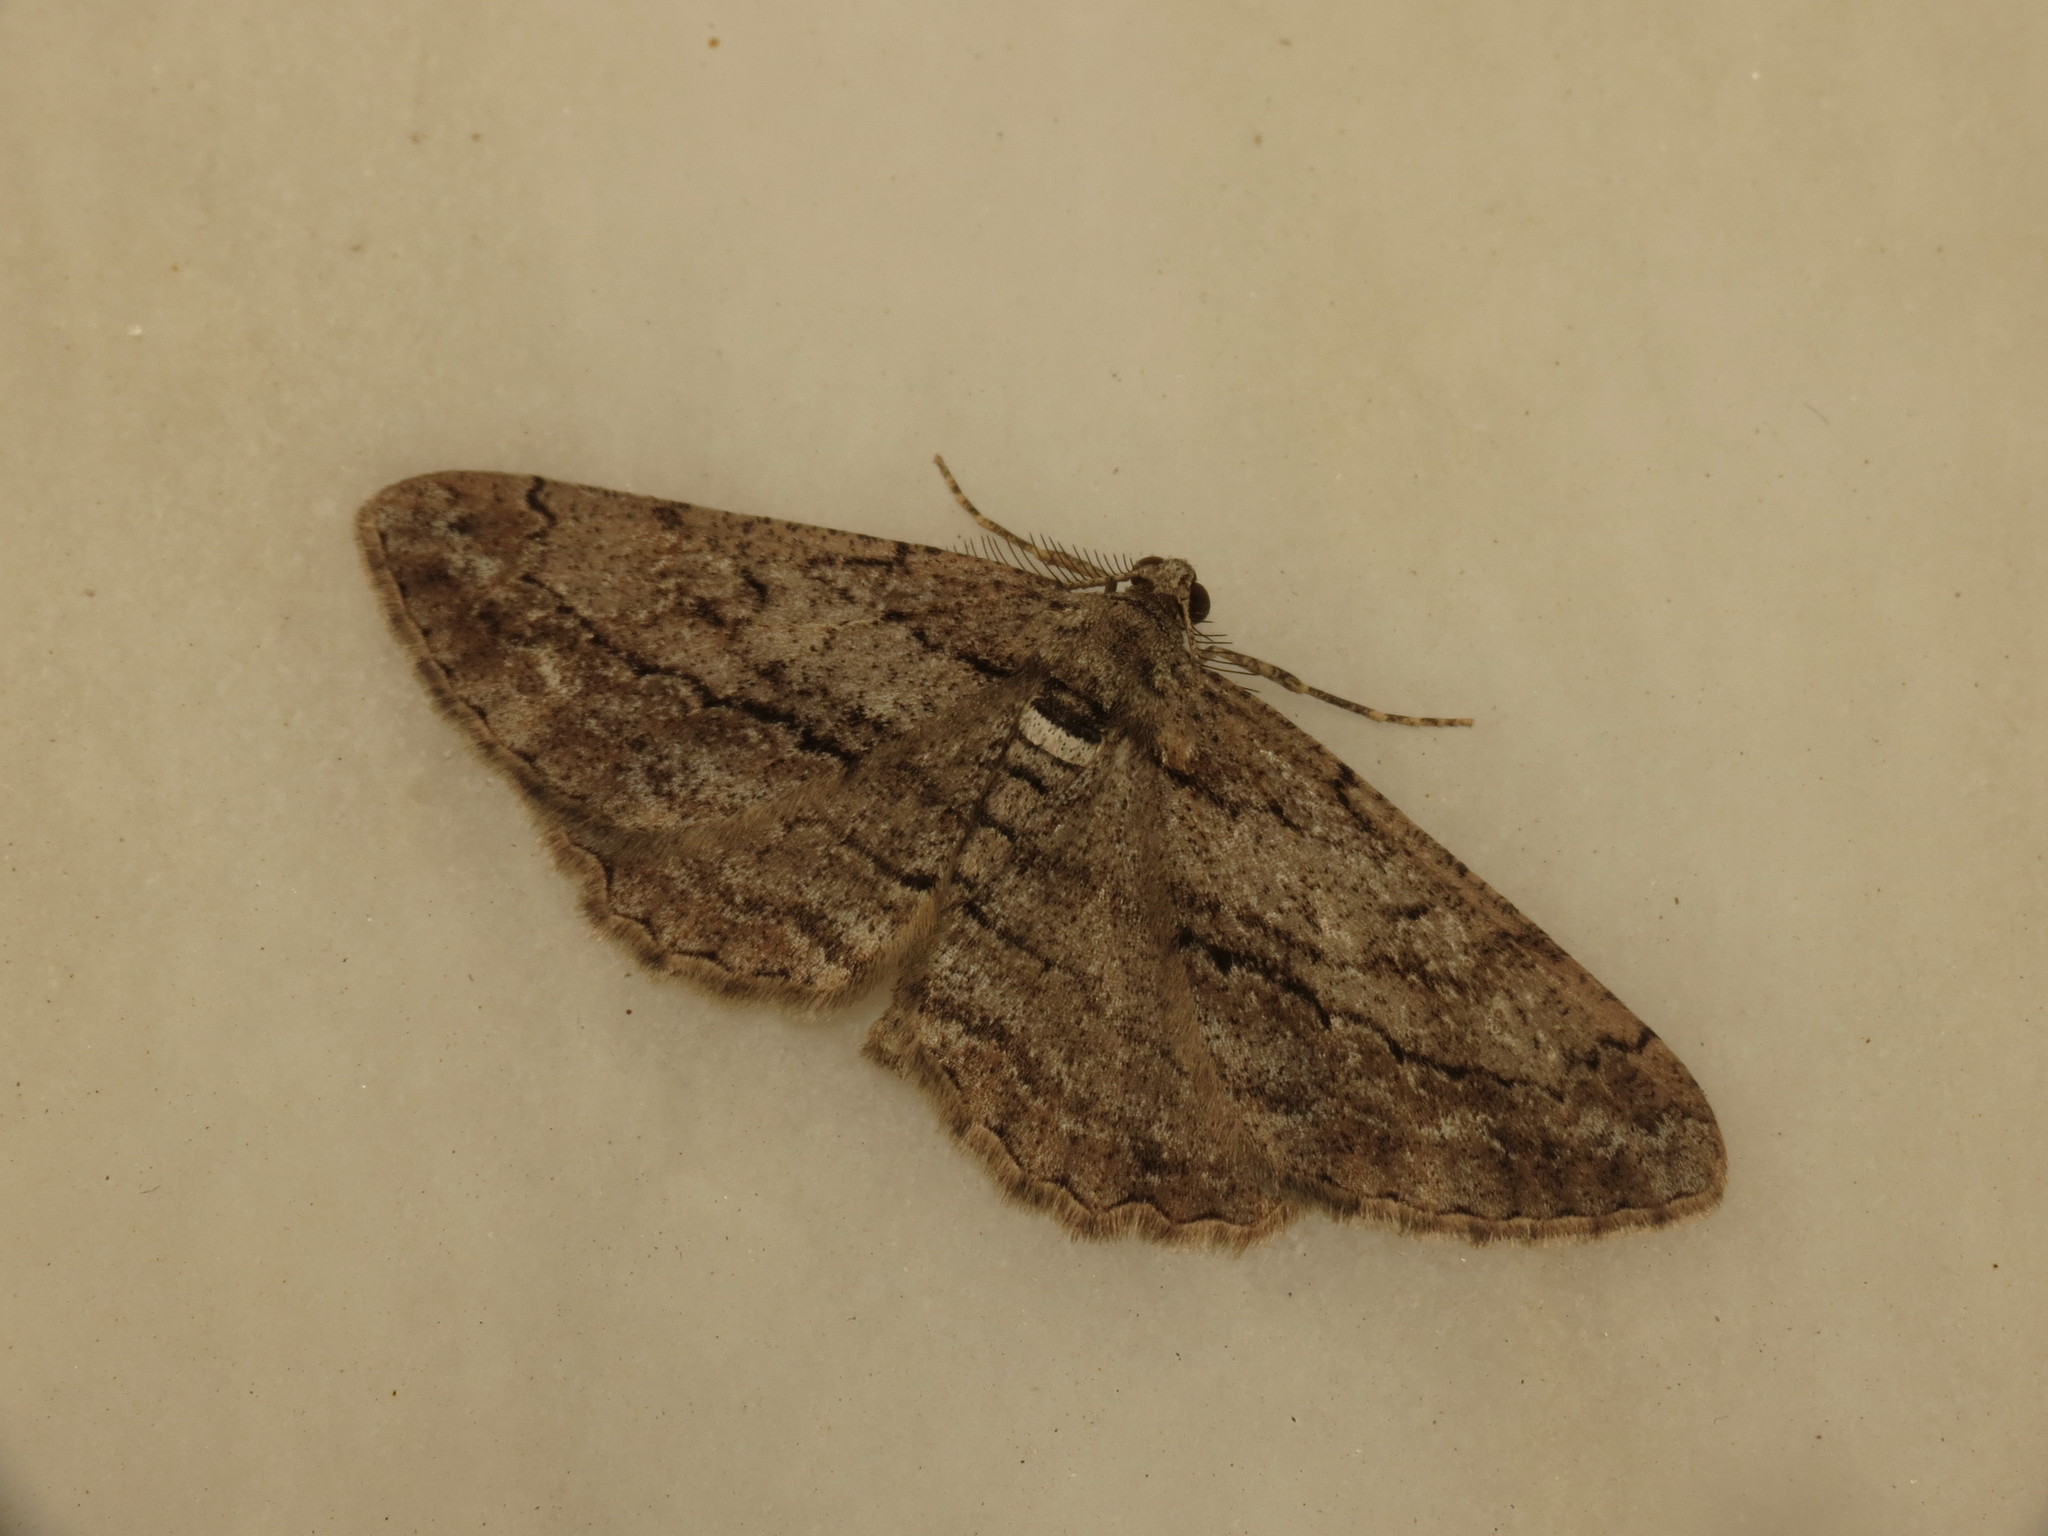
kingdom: Animalia
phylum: Arthropoda
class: Insecta
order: Lepidoptera
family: Geometridae
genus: Peribatodes
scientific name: Peribatodes correptaria
